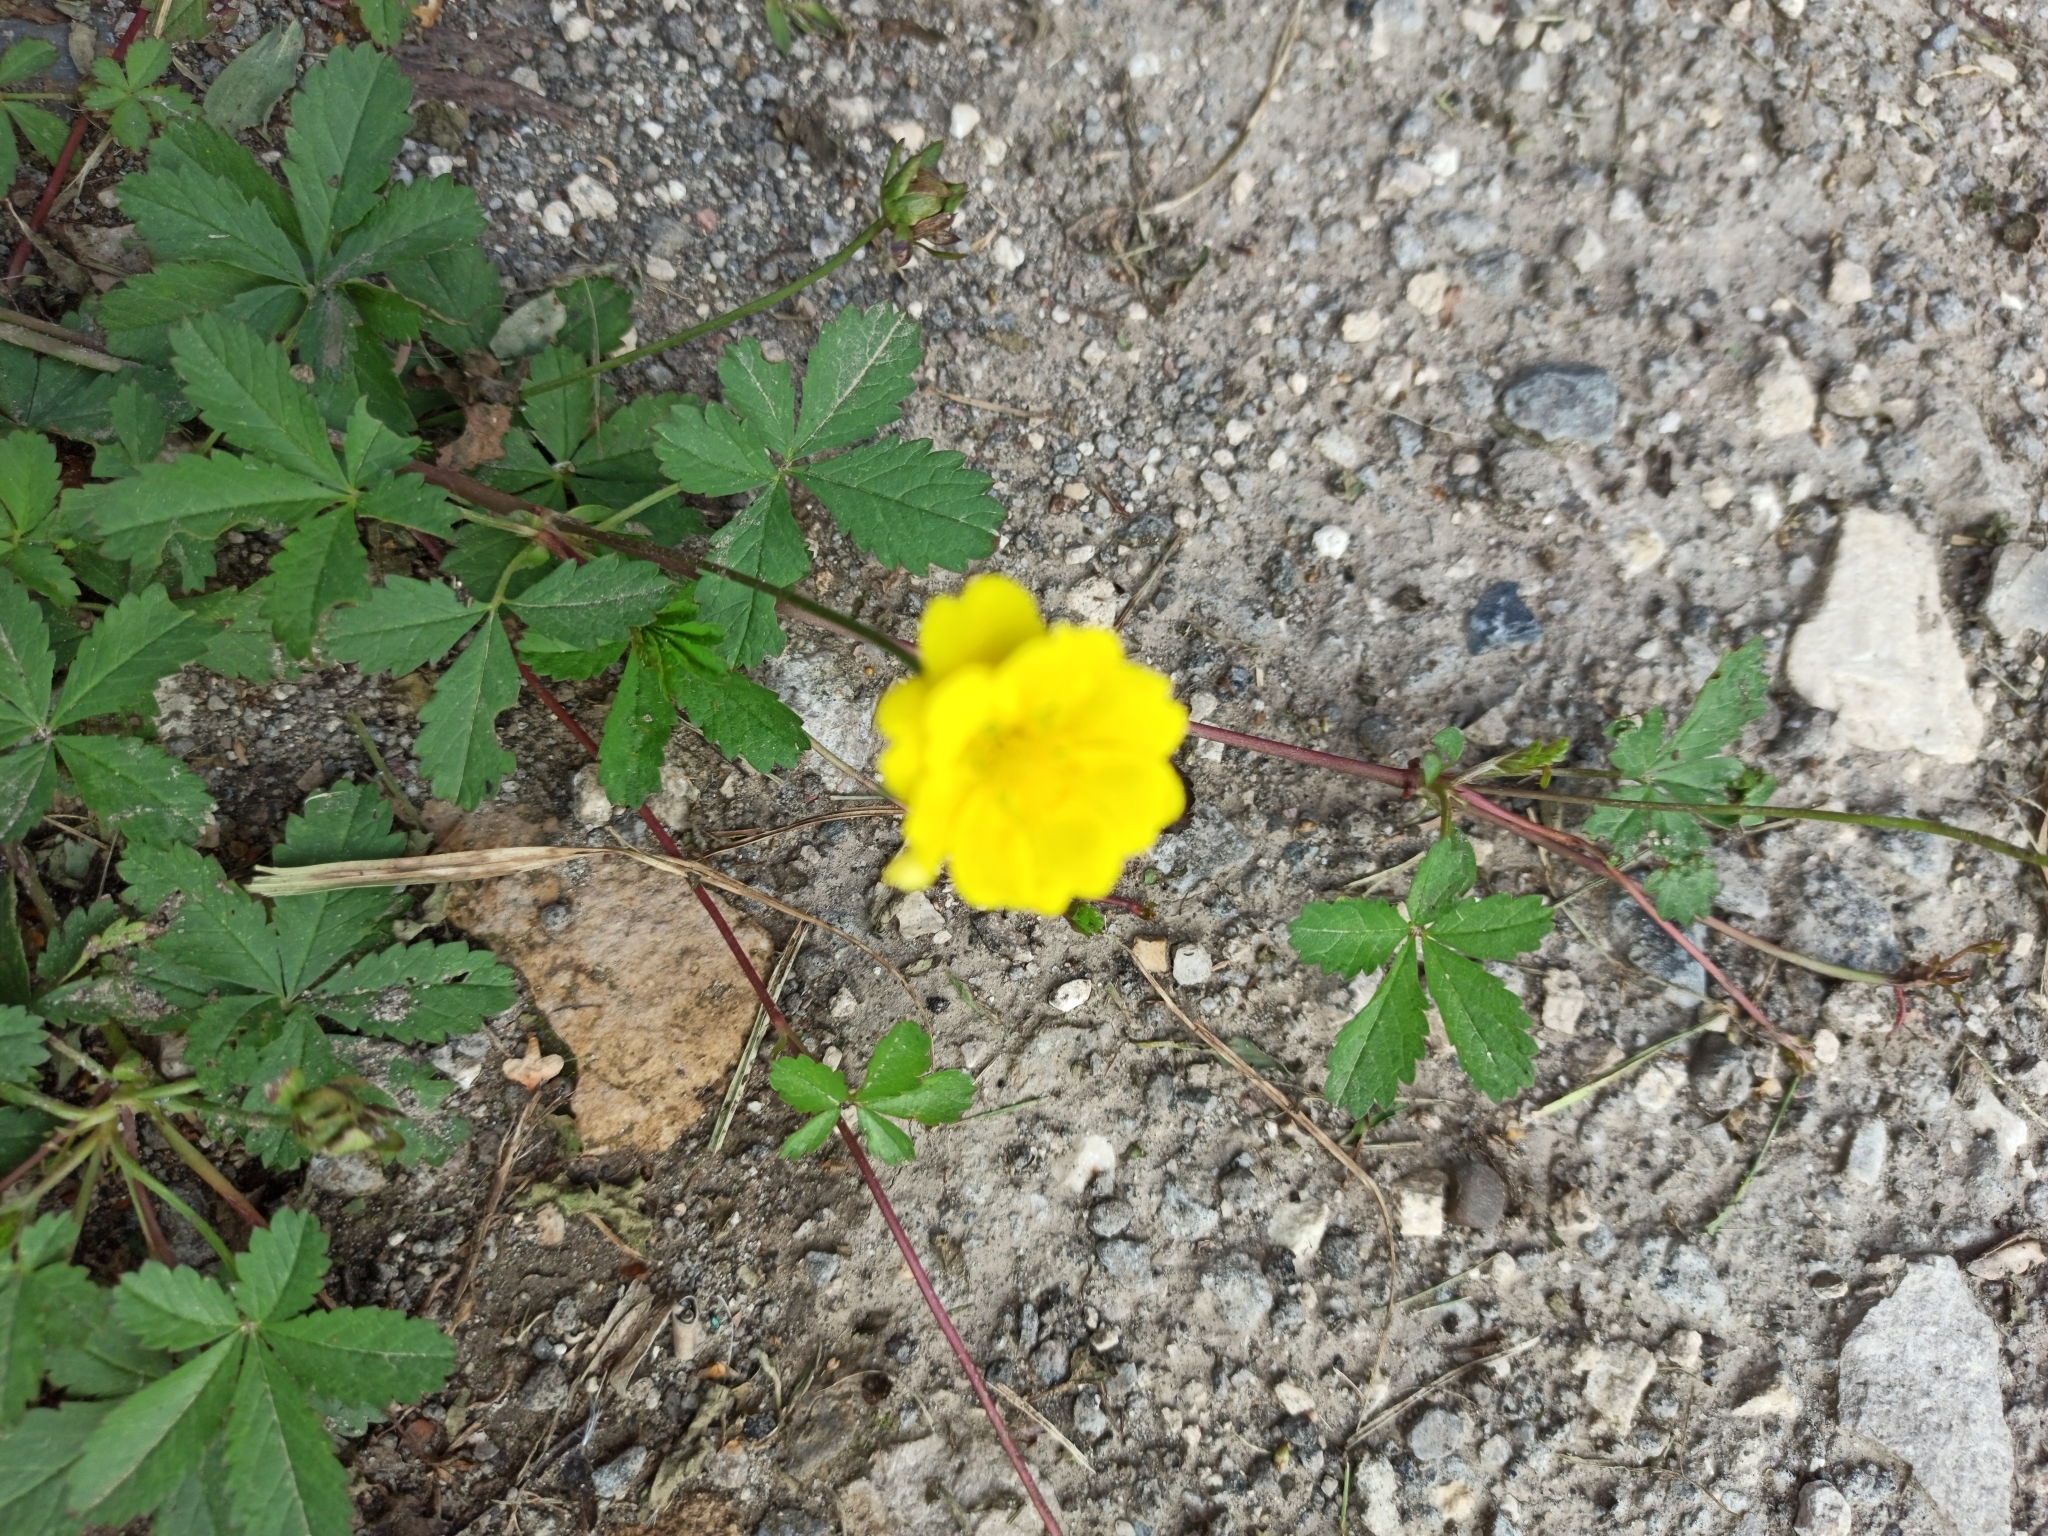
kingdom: Plantae
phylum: Tracheophyta
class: Magnoliopsida
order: Rosales
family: Rosaceae
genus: Potentilla
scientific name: Potentilla reptans
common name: Creeping cinquefoil
